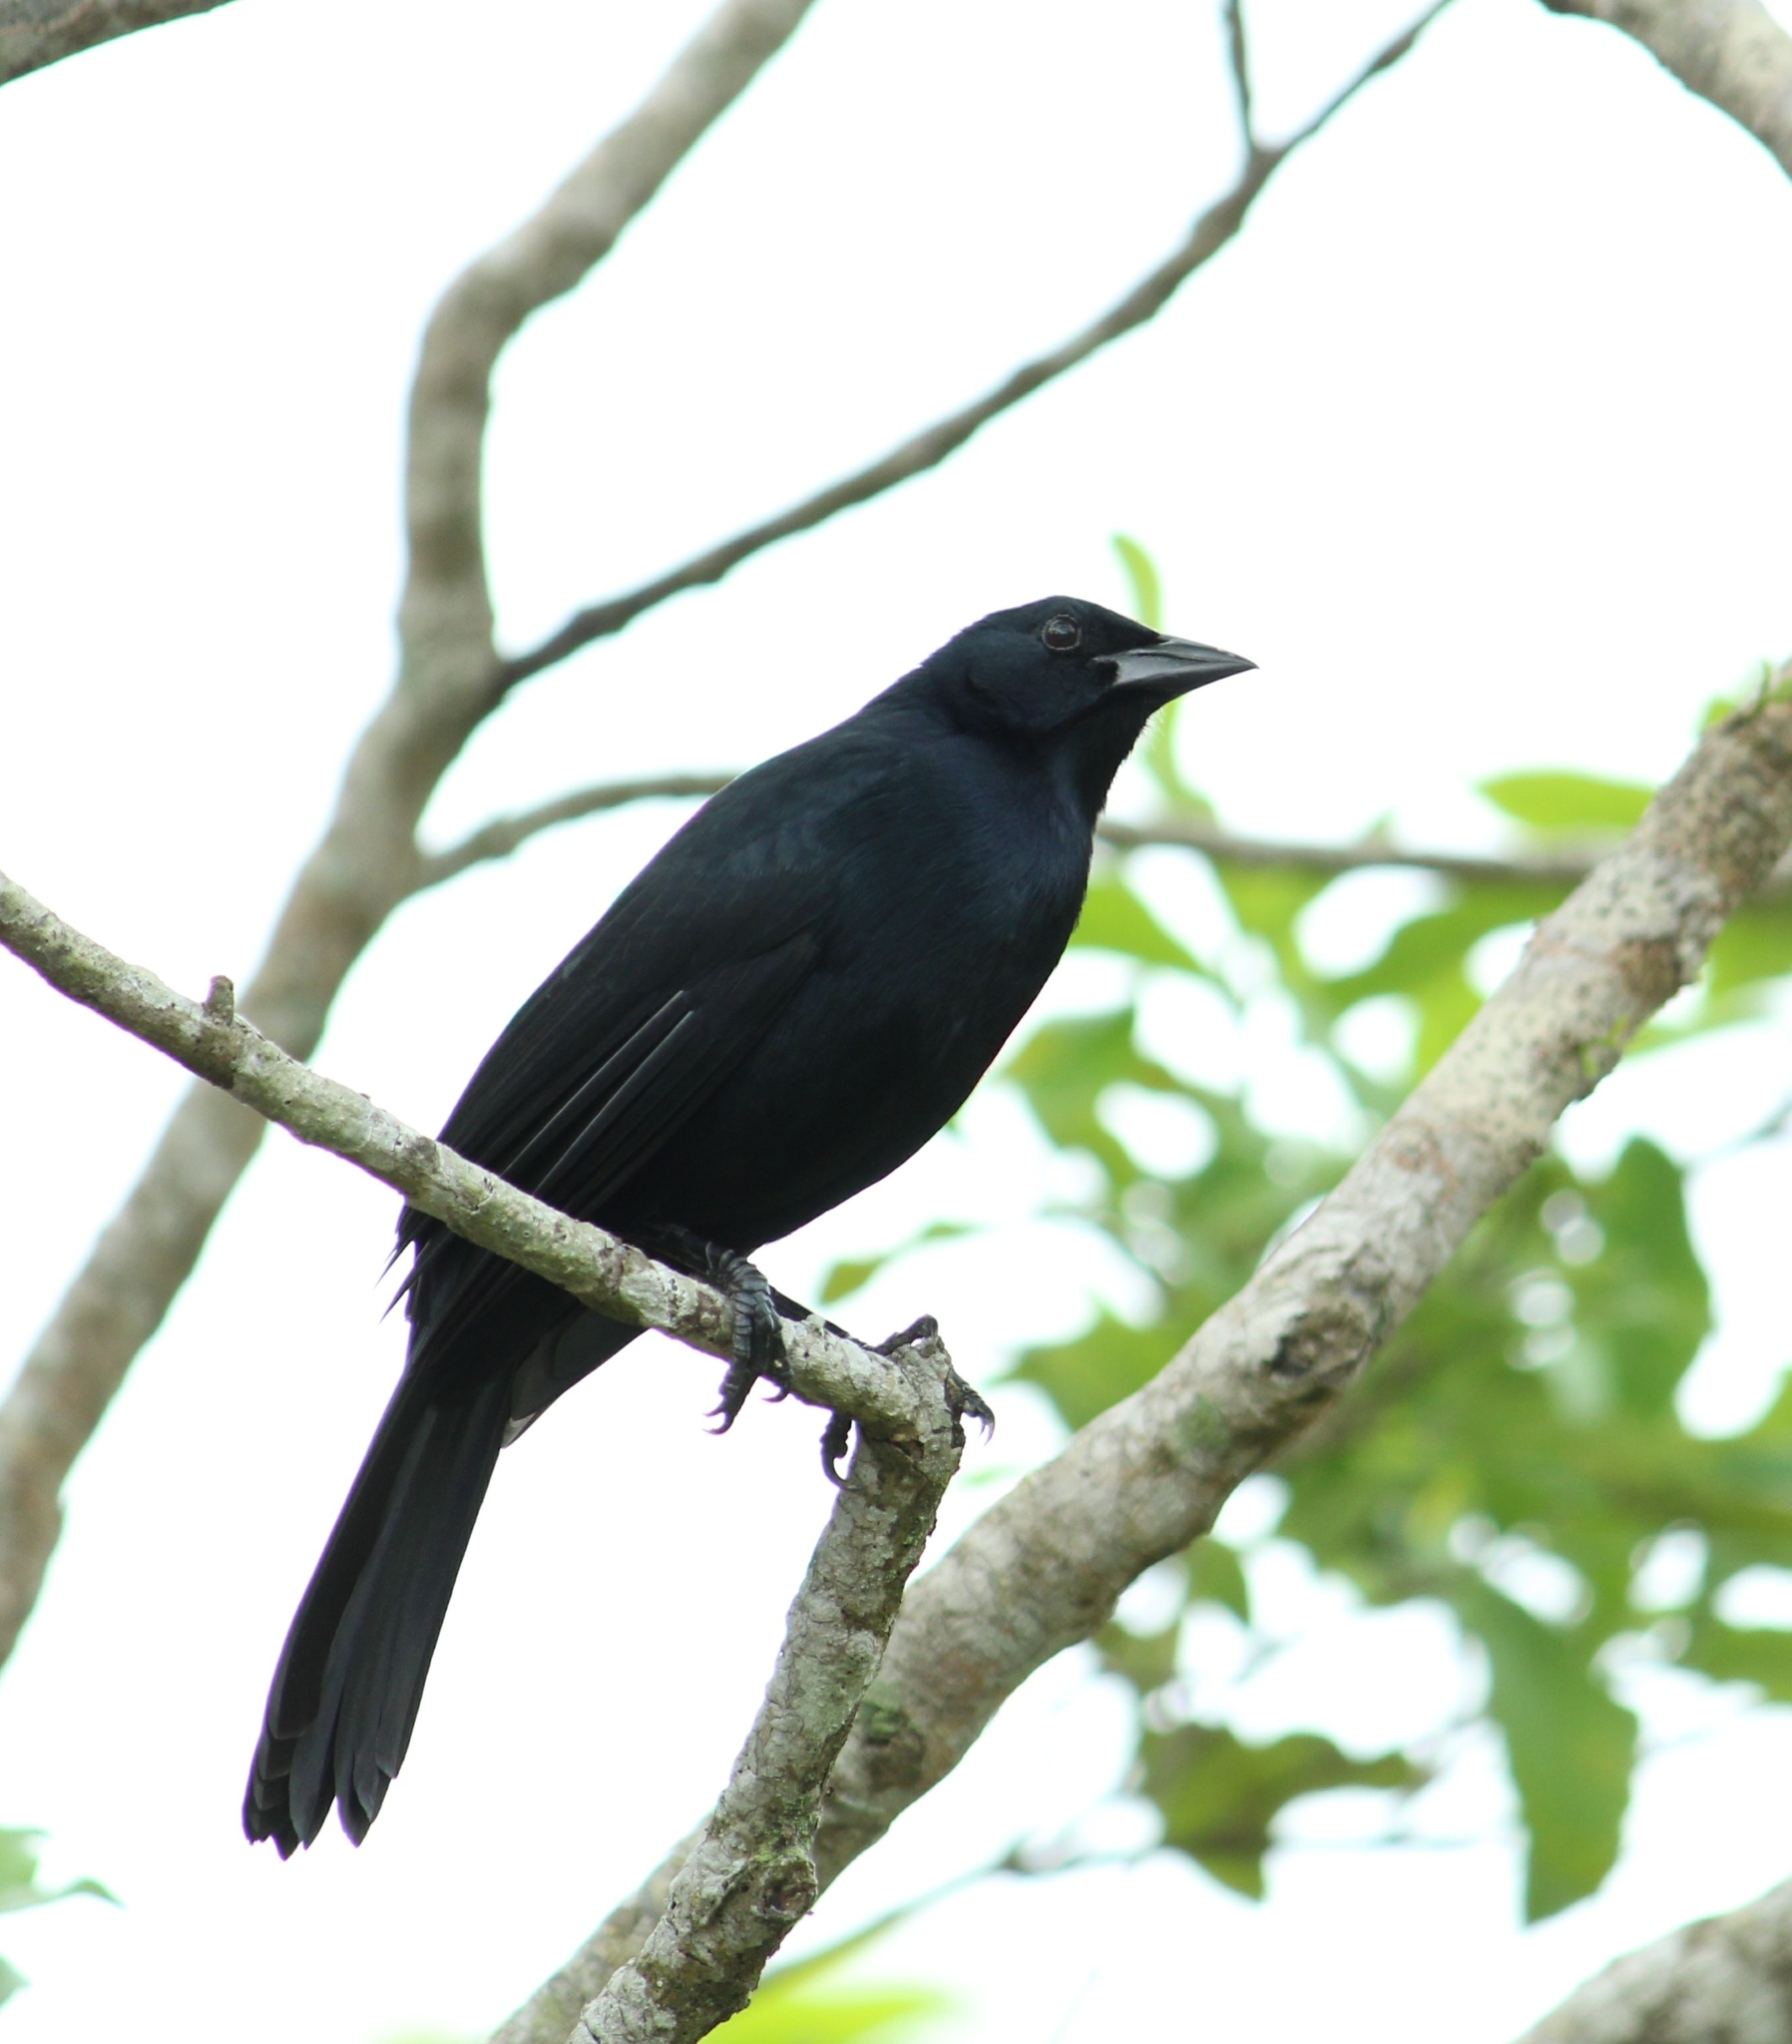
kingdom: Animalia
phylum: Chordata
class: Aves
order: Passeriformes
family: Icteridae
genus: Dives
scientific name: Dives dives
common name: Melodious blackbird
